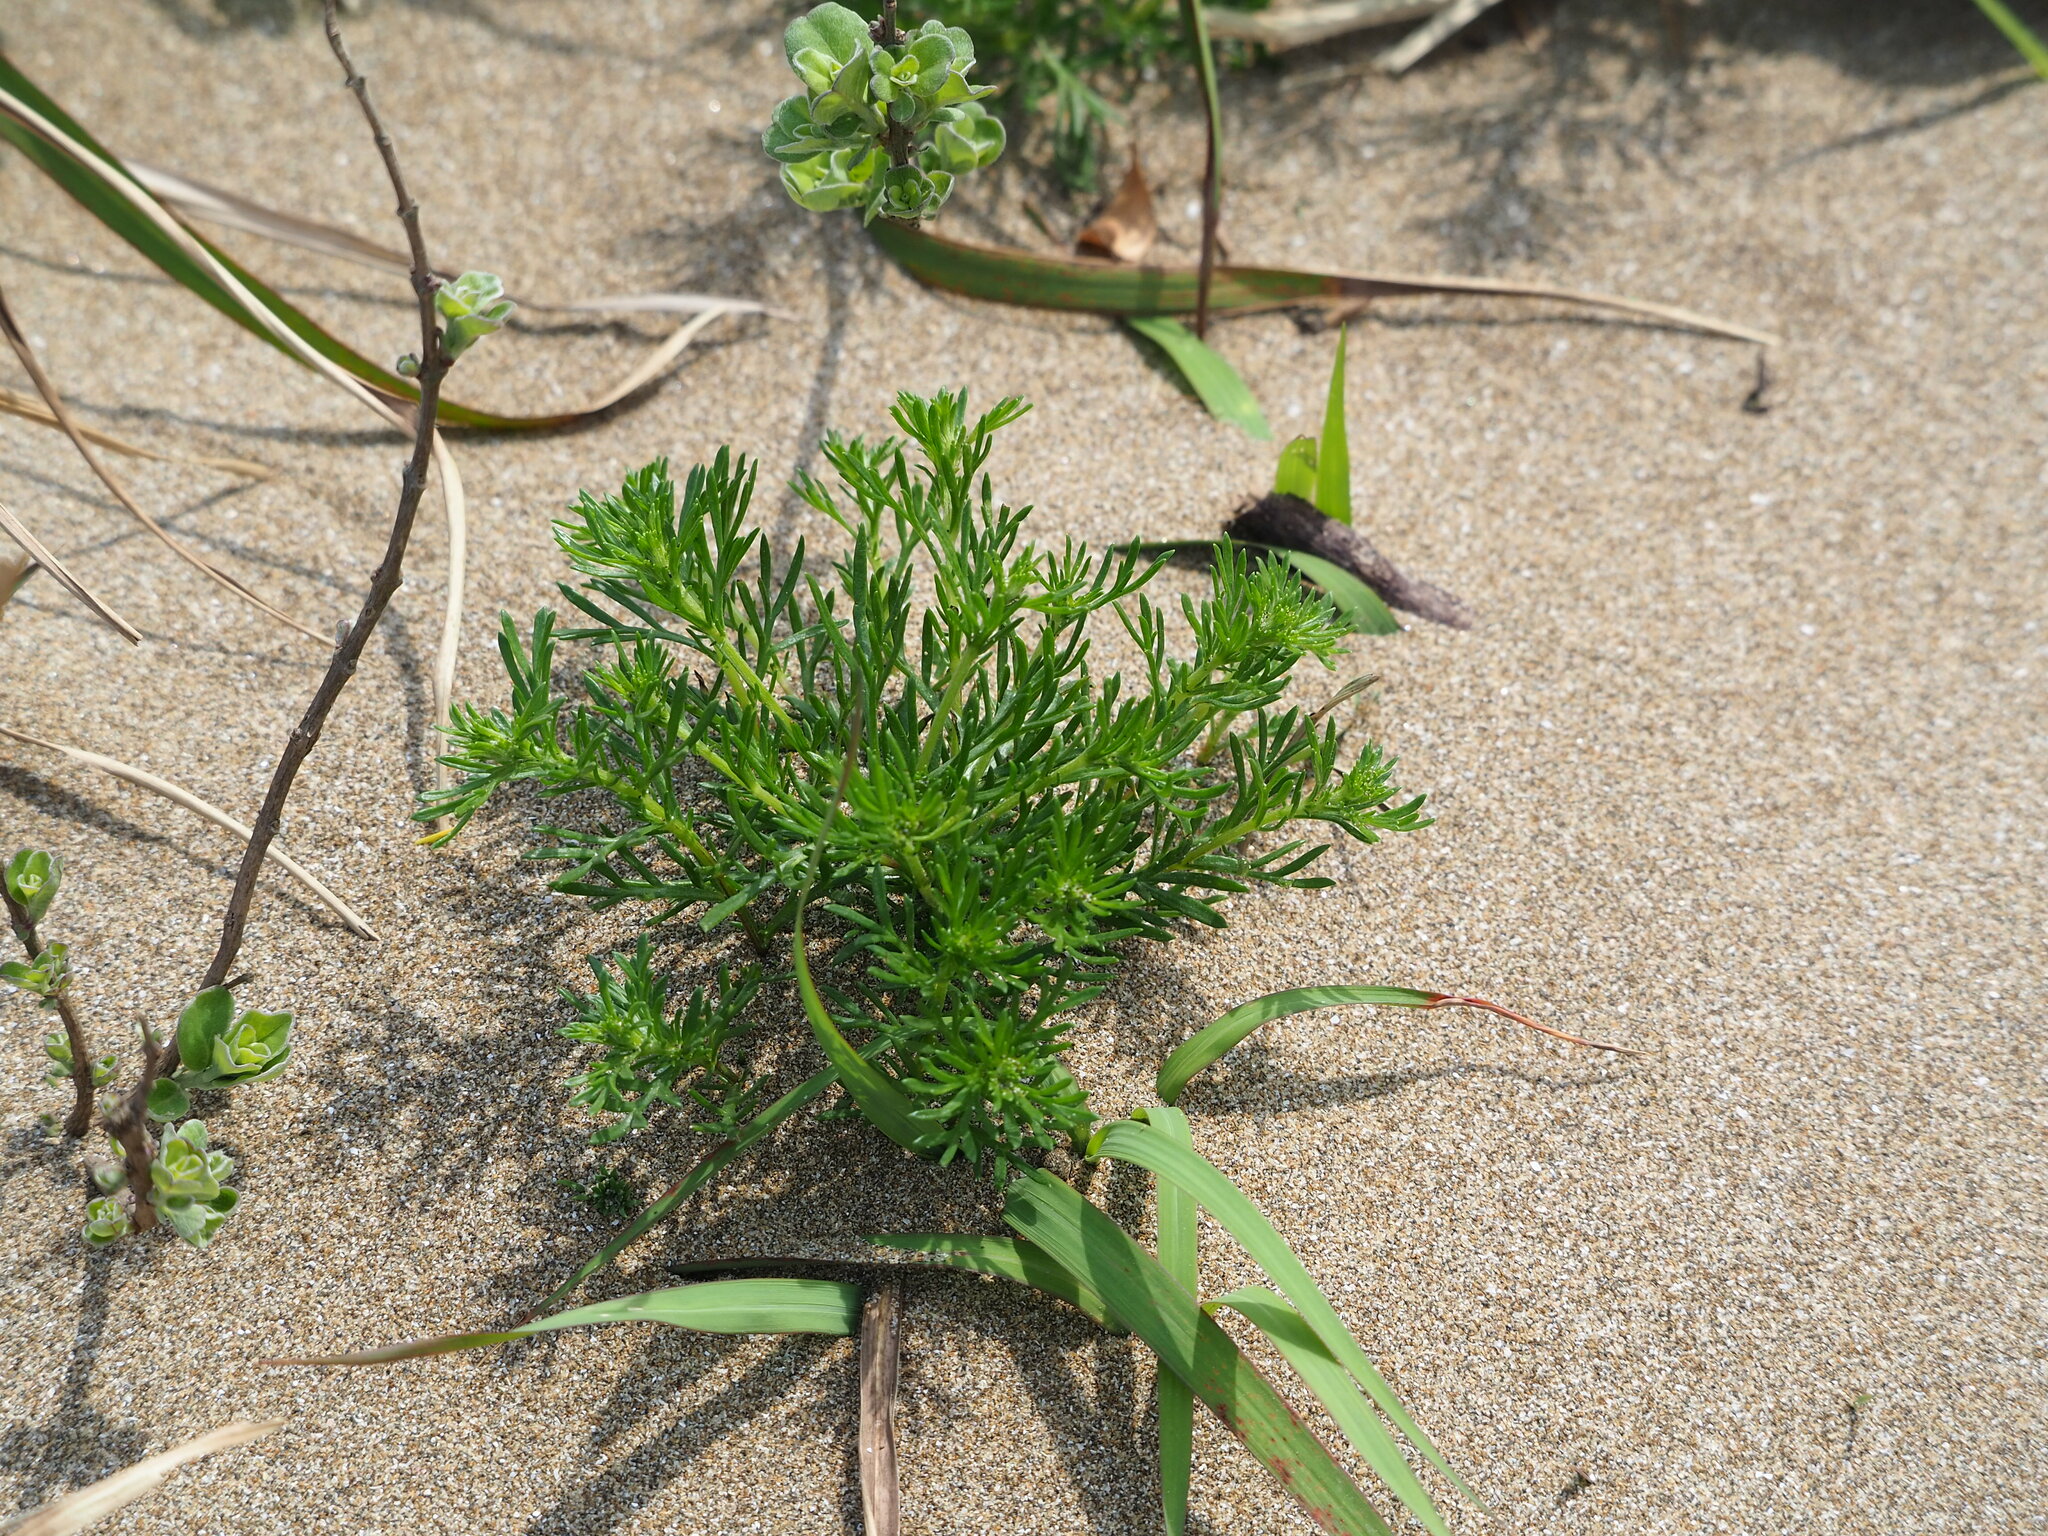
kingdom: Plantae
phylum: Tracheophyta
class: Magnoliopsida
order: Asterales
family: Asteraceae
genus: Artemisia
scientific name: Artemisia capillaris
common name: Yin-chen wormwood
